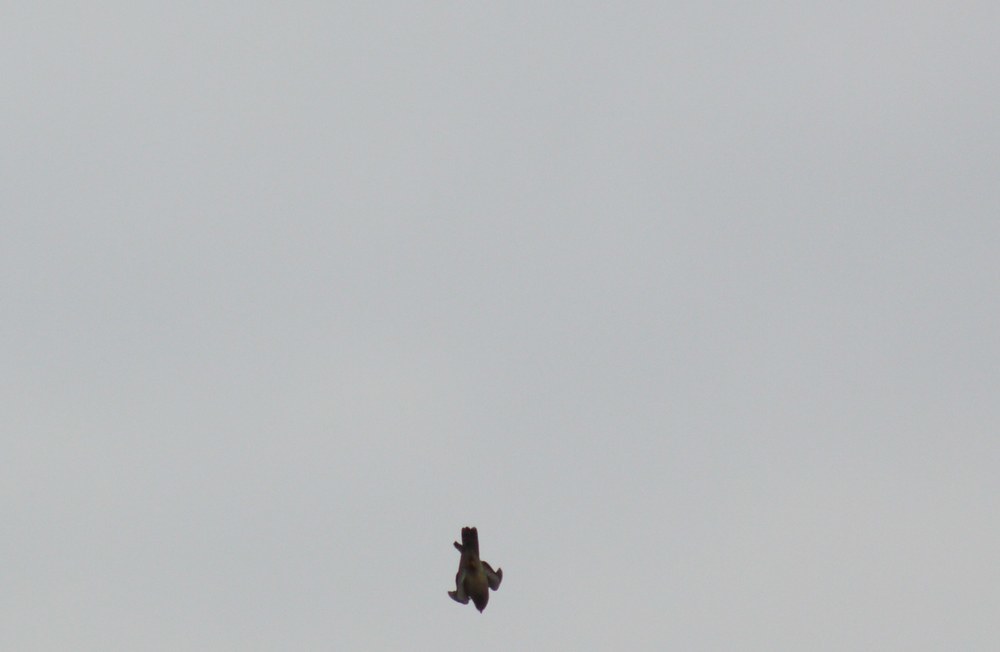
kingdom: Animalia
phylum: Chordata
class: Aves
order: Falconiformes
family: Falconidae
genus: Falco
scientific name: Falco tinnunculus
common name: Common kestrel
